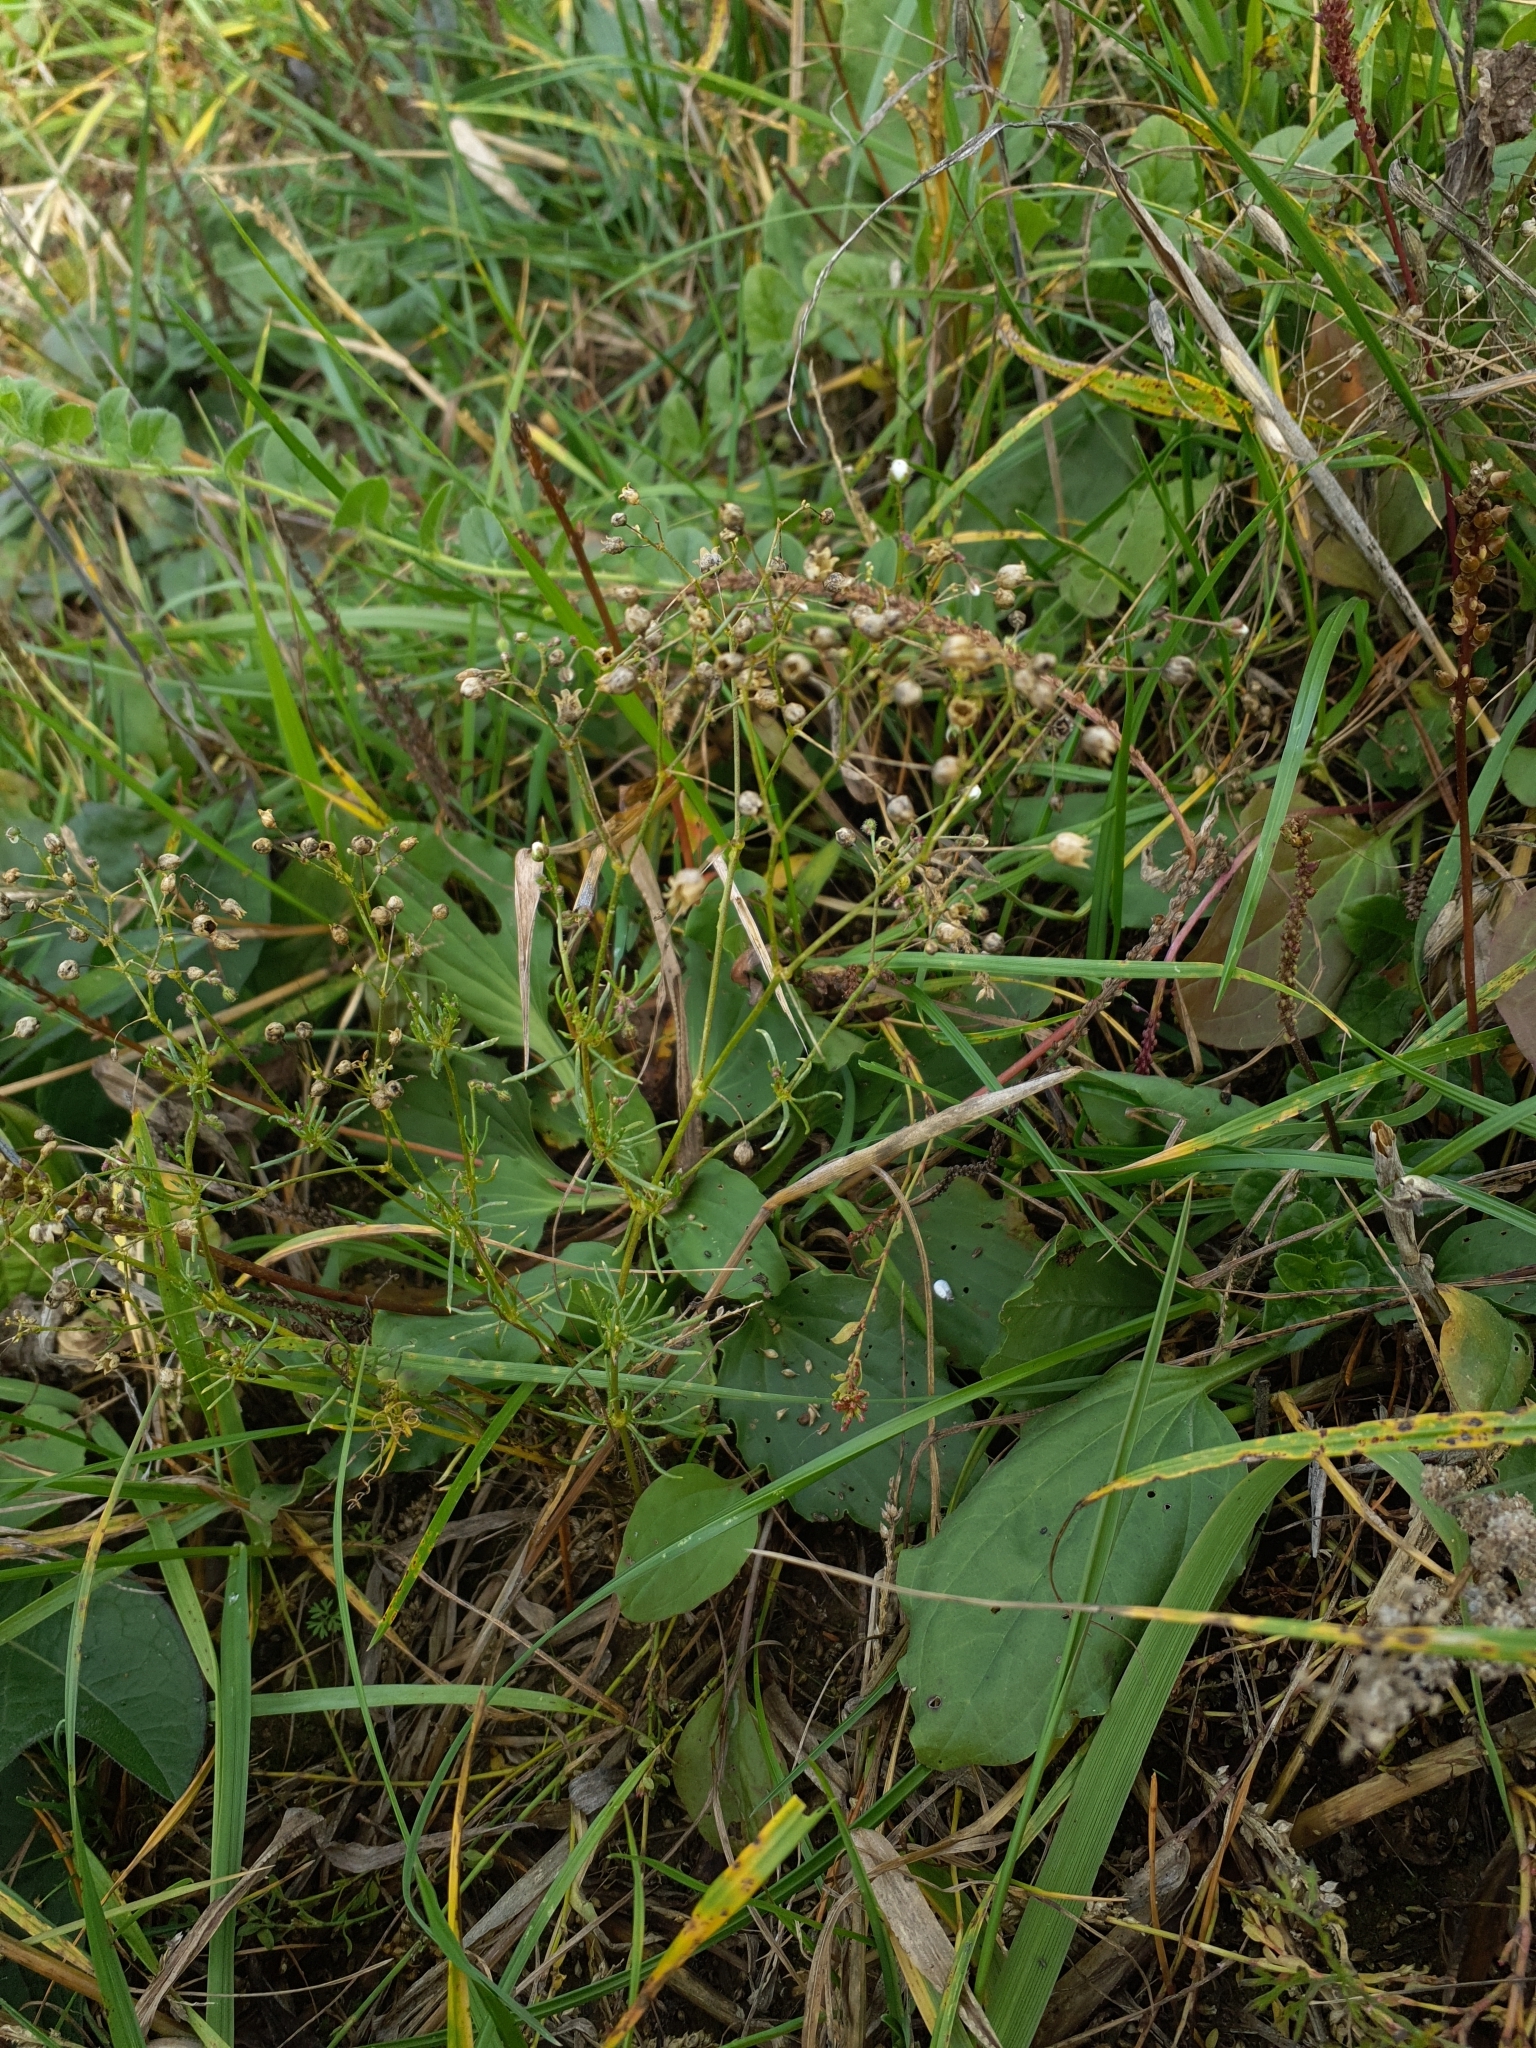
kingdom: Plantae
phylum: Tracheophyta
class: Magnoliopsida
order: Caryophyllales
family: Caryophyllaceae
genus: Spergula
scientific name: Spergula arvensis
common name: Corn spurrey
